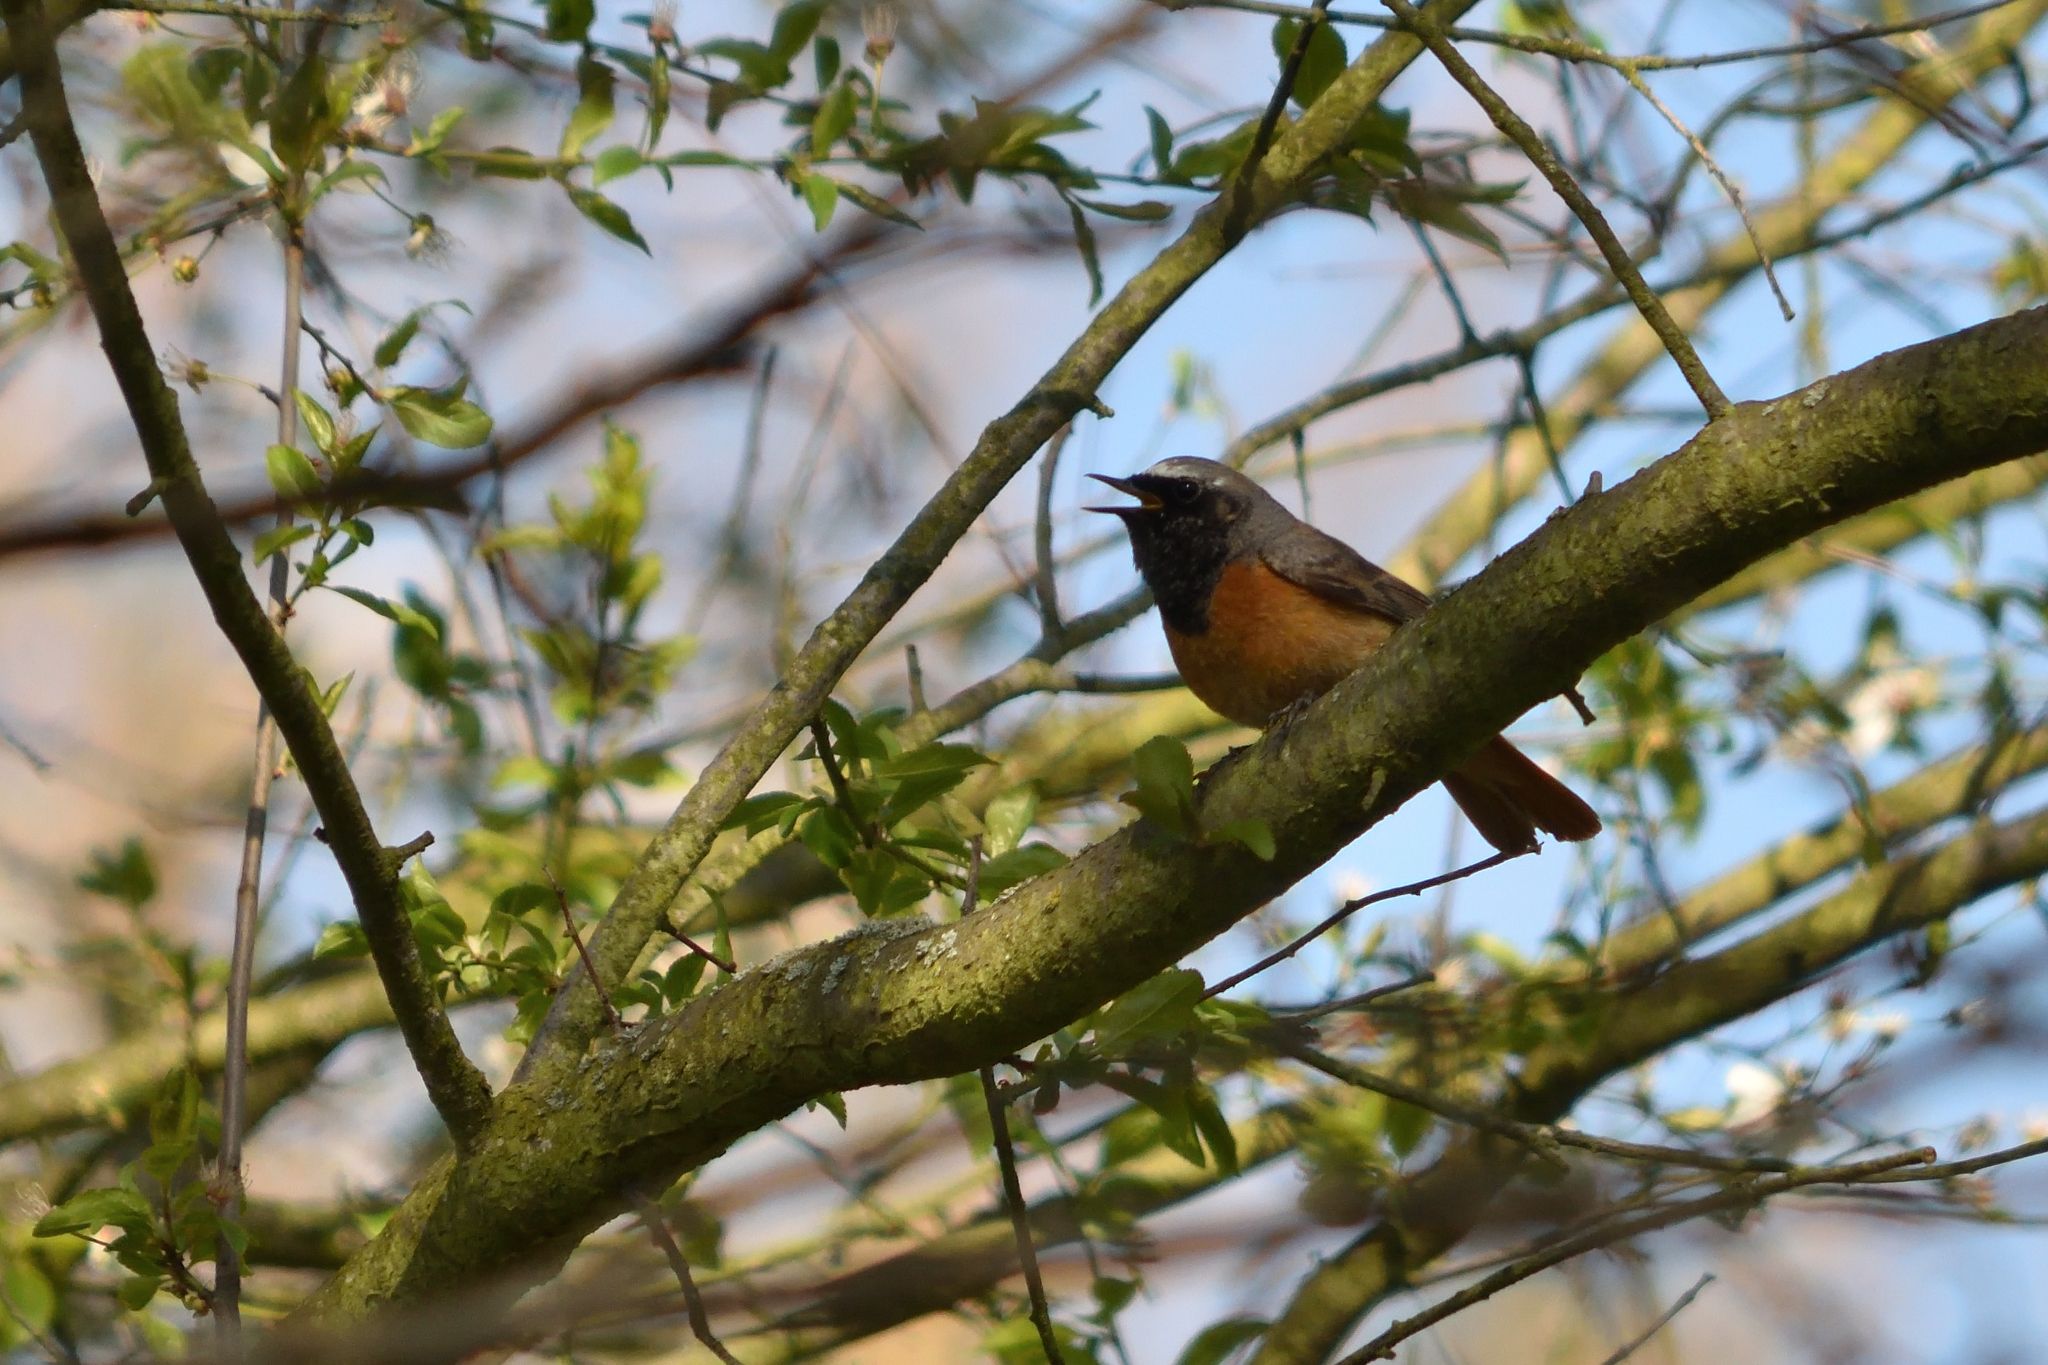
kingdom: Animalia
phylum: Chordata
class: Aves
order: Passeriformes
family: Muscicapidae
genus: Phoenicurus
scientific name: Phoenicurus phoenicurus
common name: Common redstart
